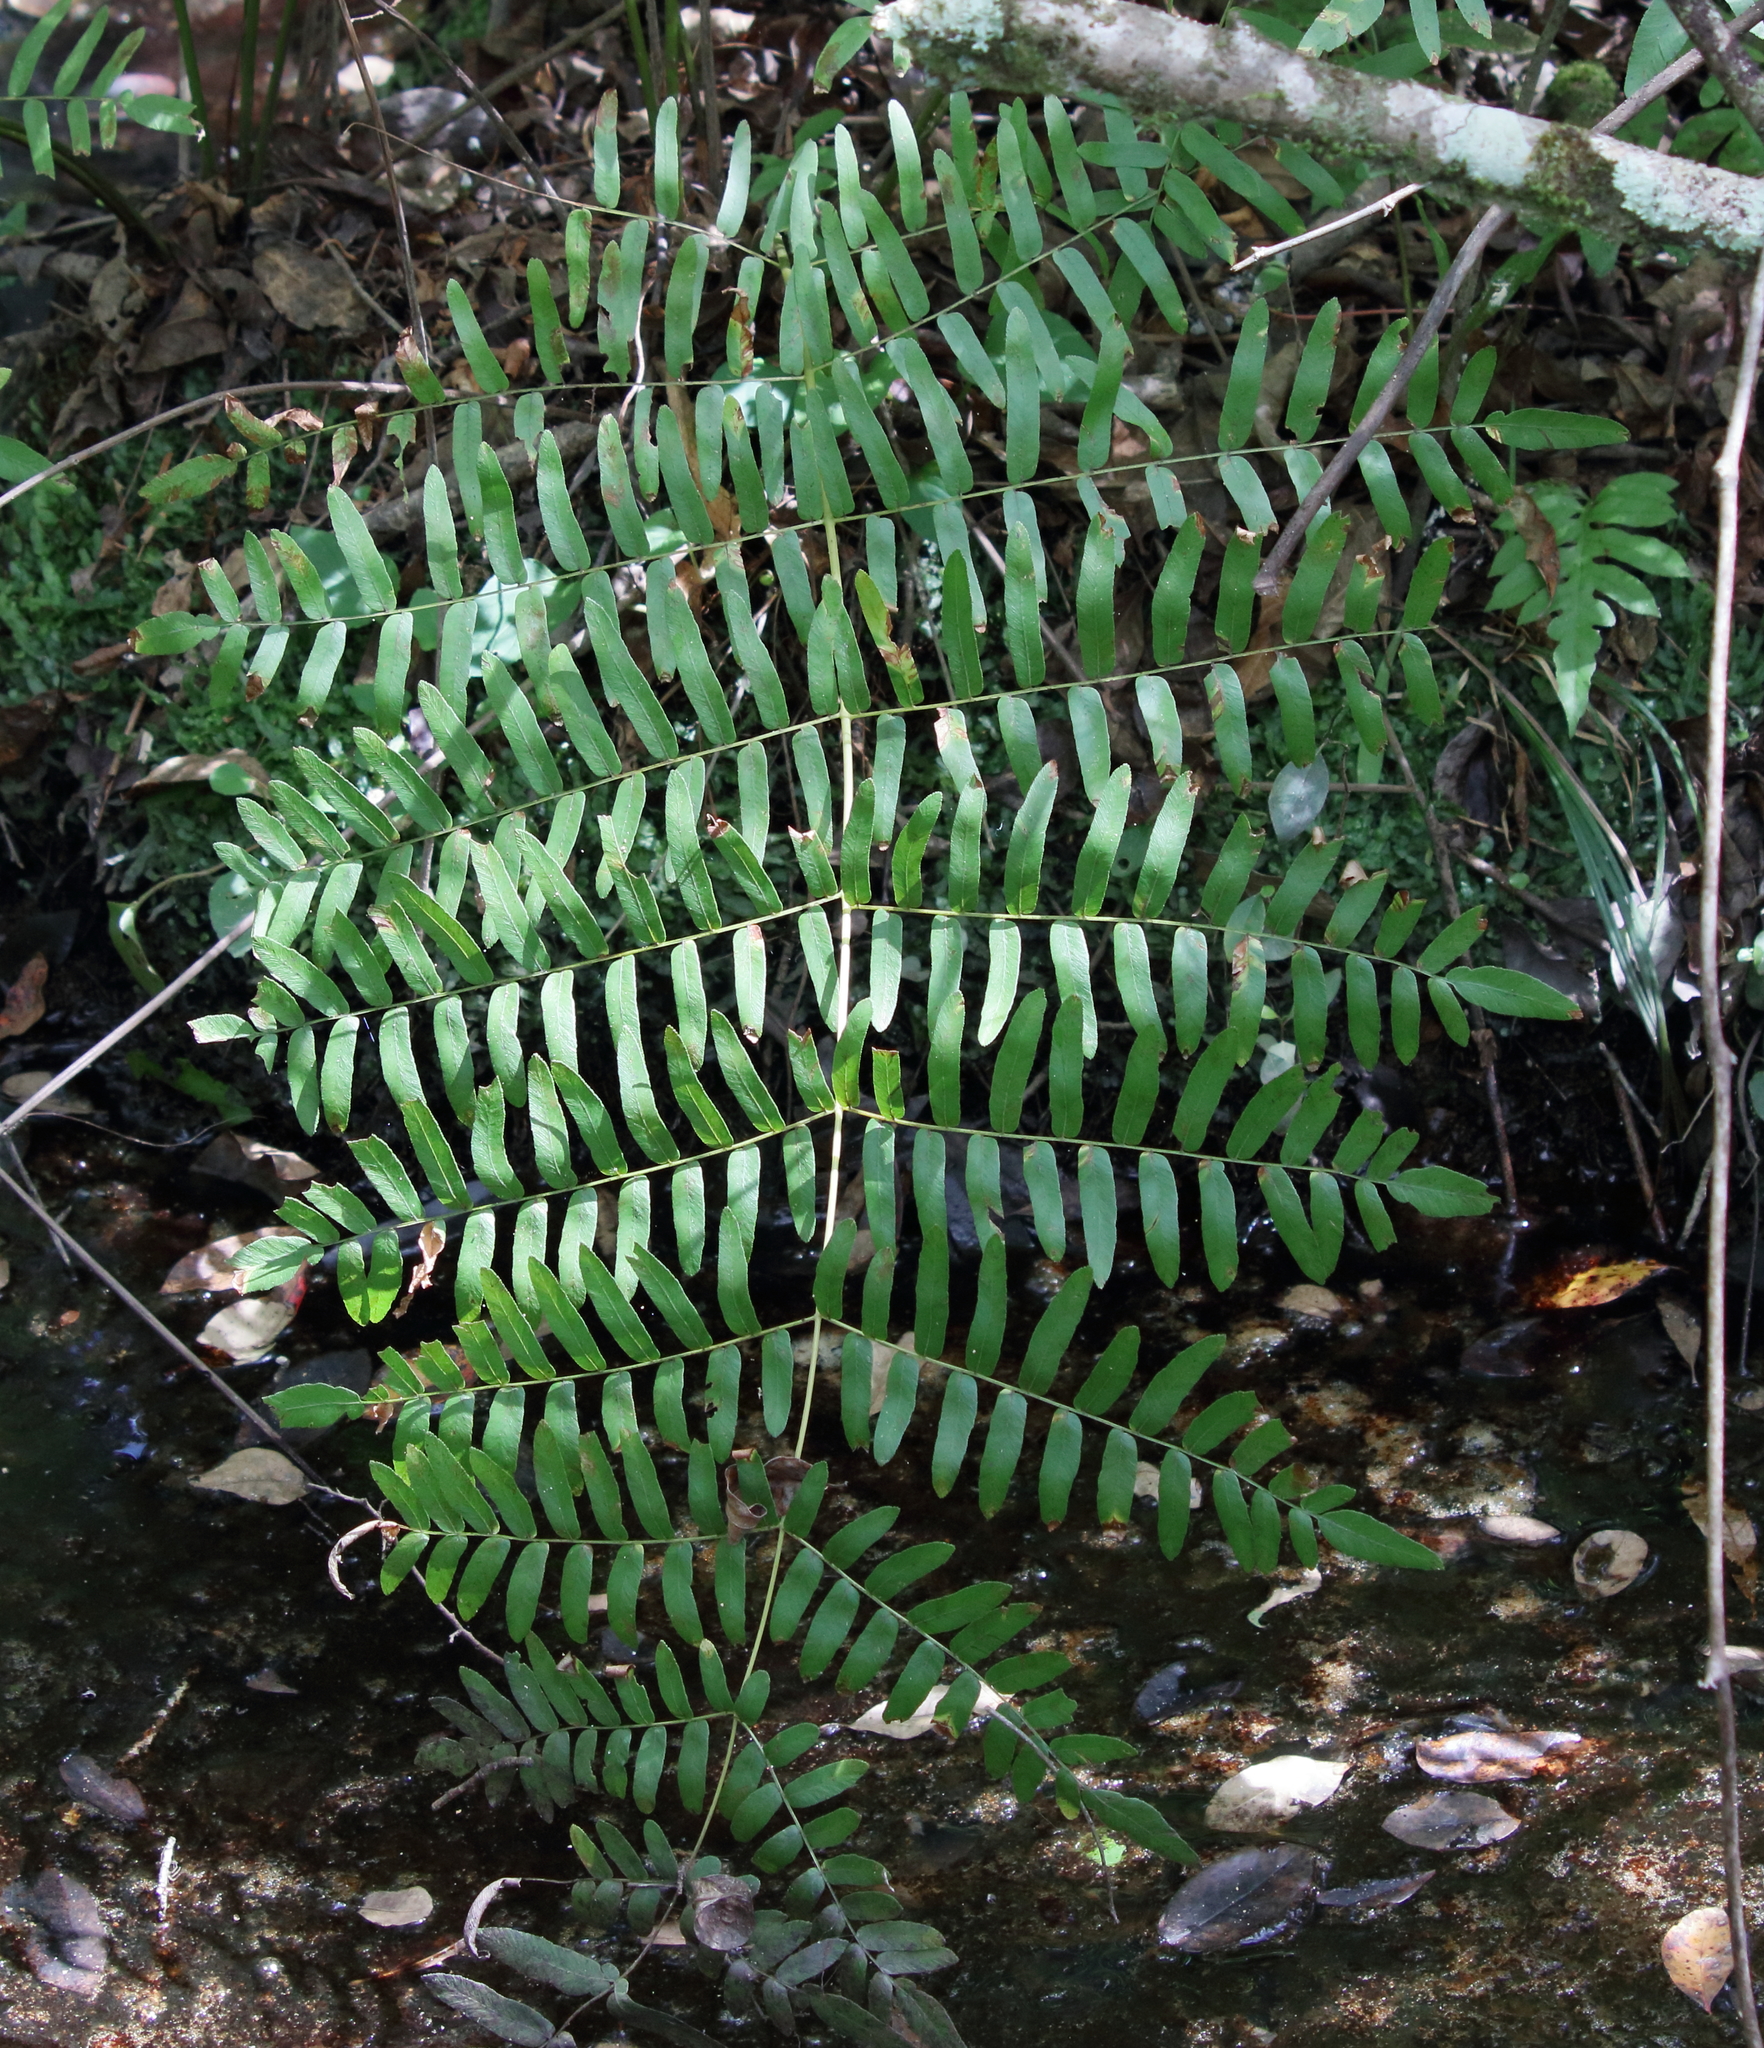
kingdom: Plantae
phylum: Tracheophyta
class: Polypodiopsida
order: Osmundales
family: Osmundaceae
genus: Osmunda
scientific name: Osmunda spectabilis
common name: American royal fern
